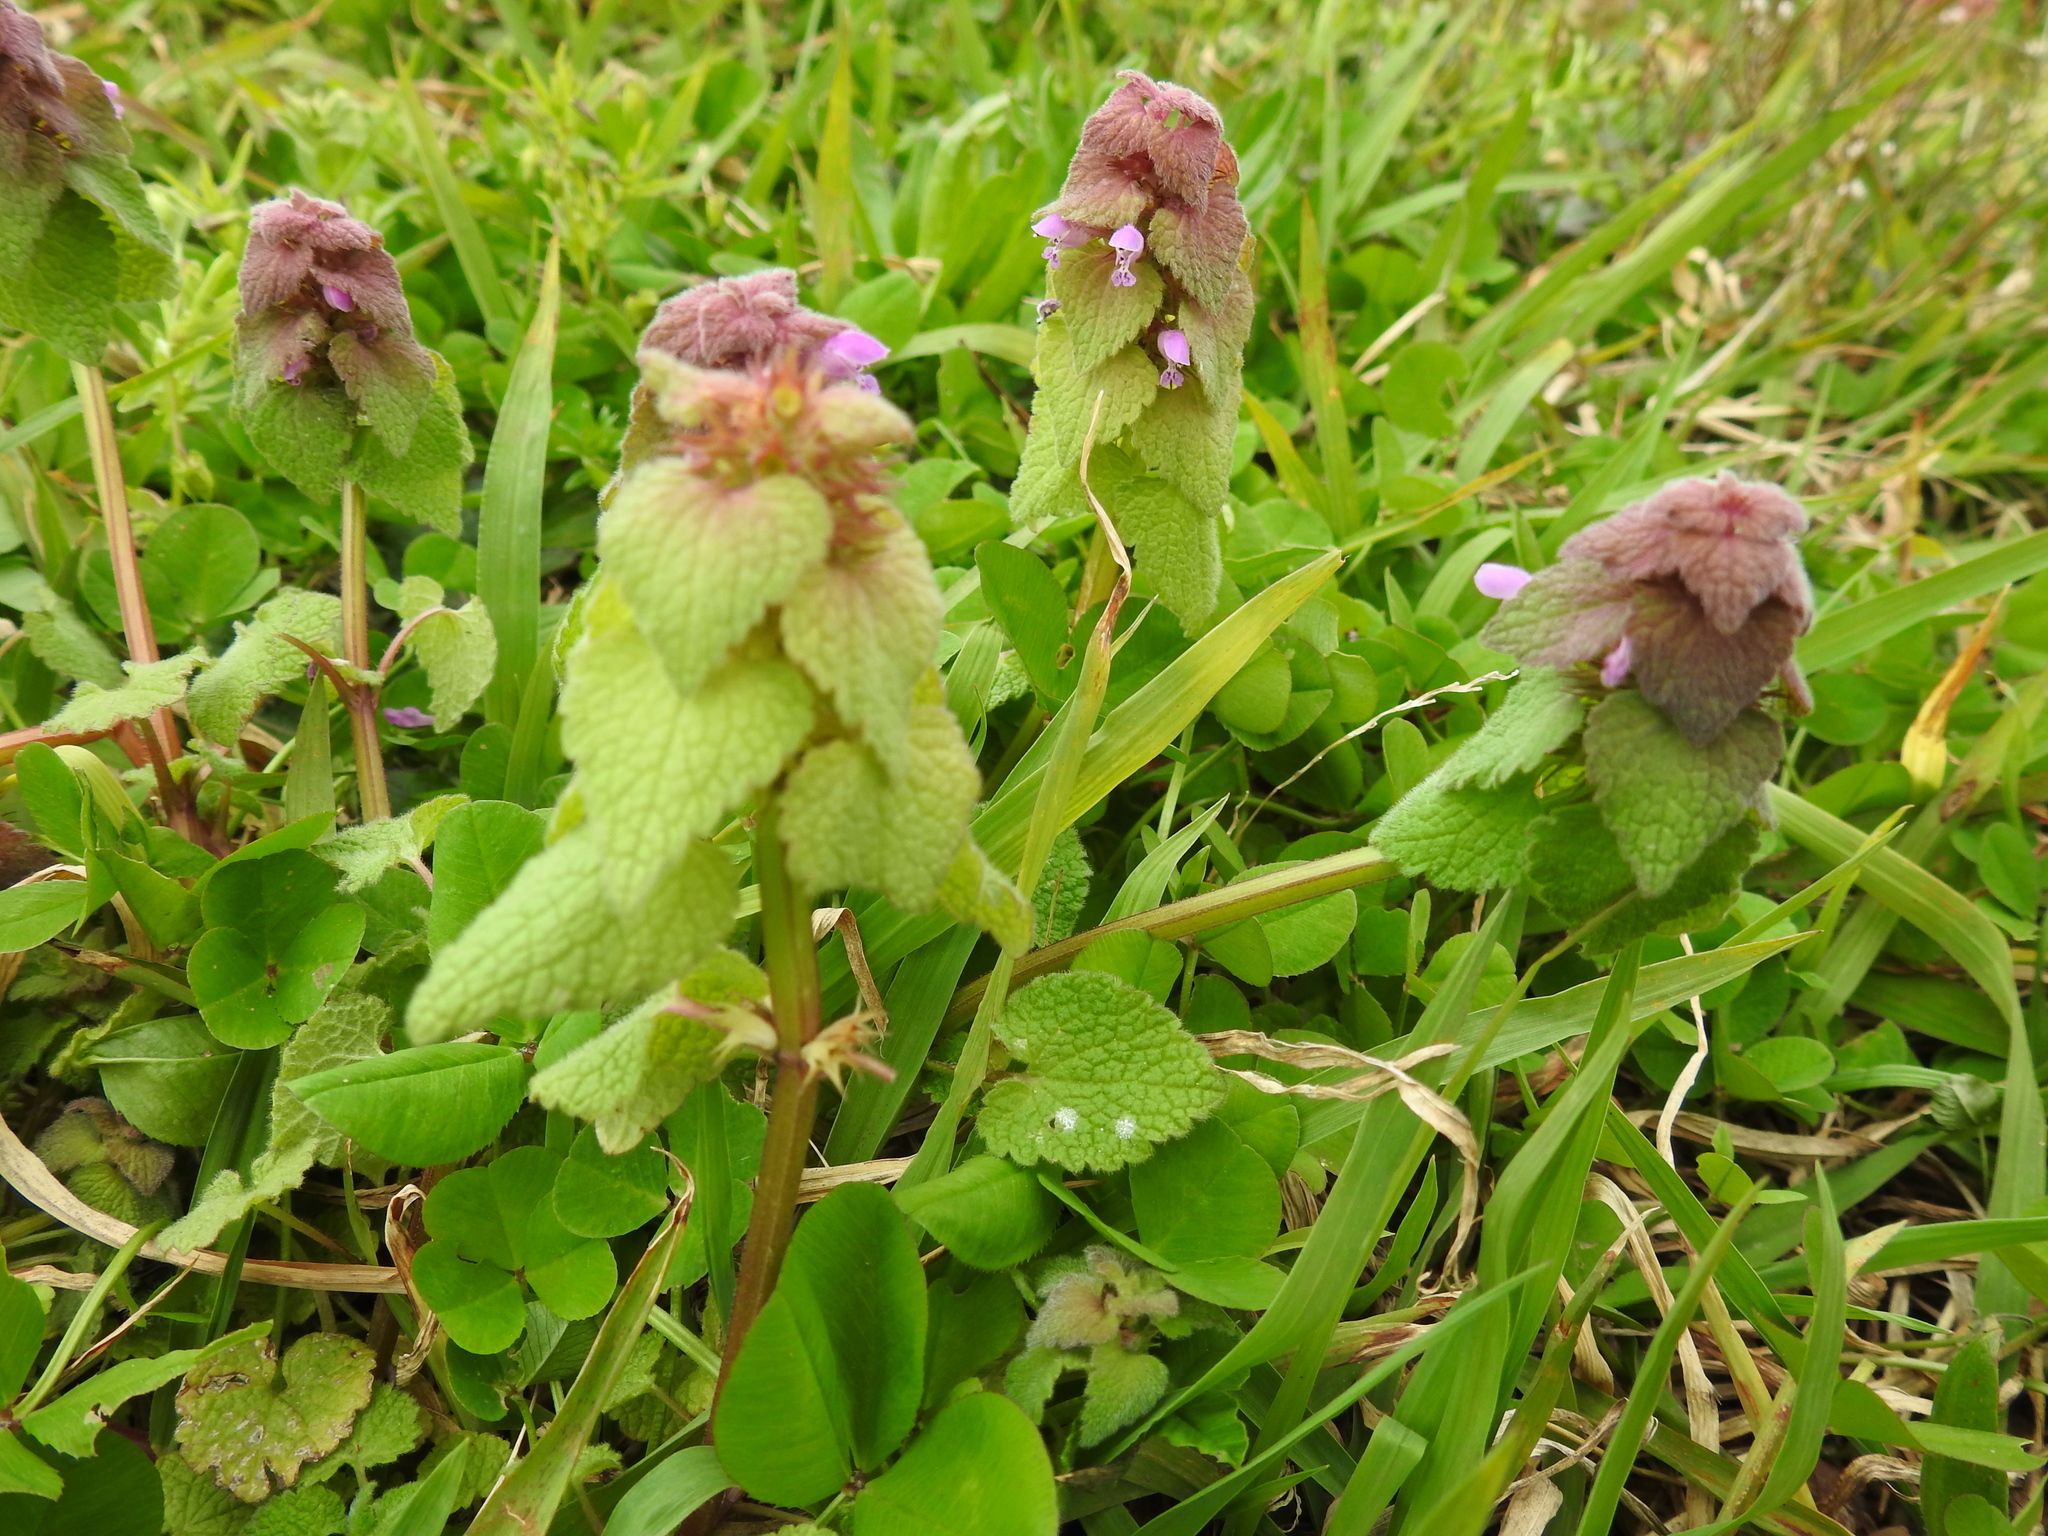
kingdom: Plantae
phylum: Tracheophyta
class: Magnoliopsida
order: Lamiales
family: Lamiaceae
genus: Lamium
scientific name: Lamium purpureum
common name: Red dead-nettle
